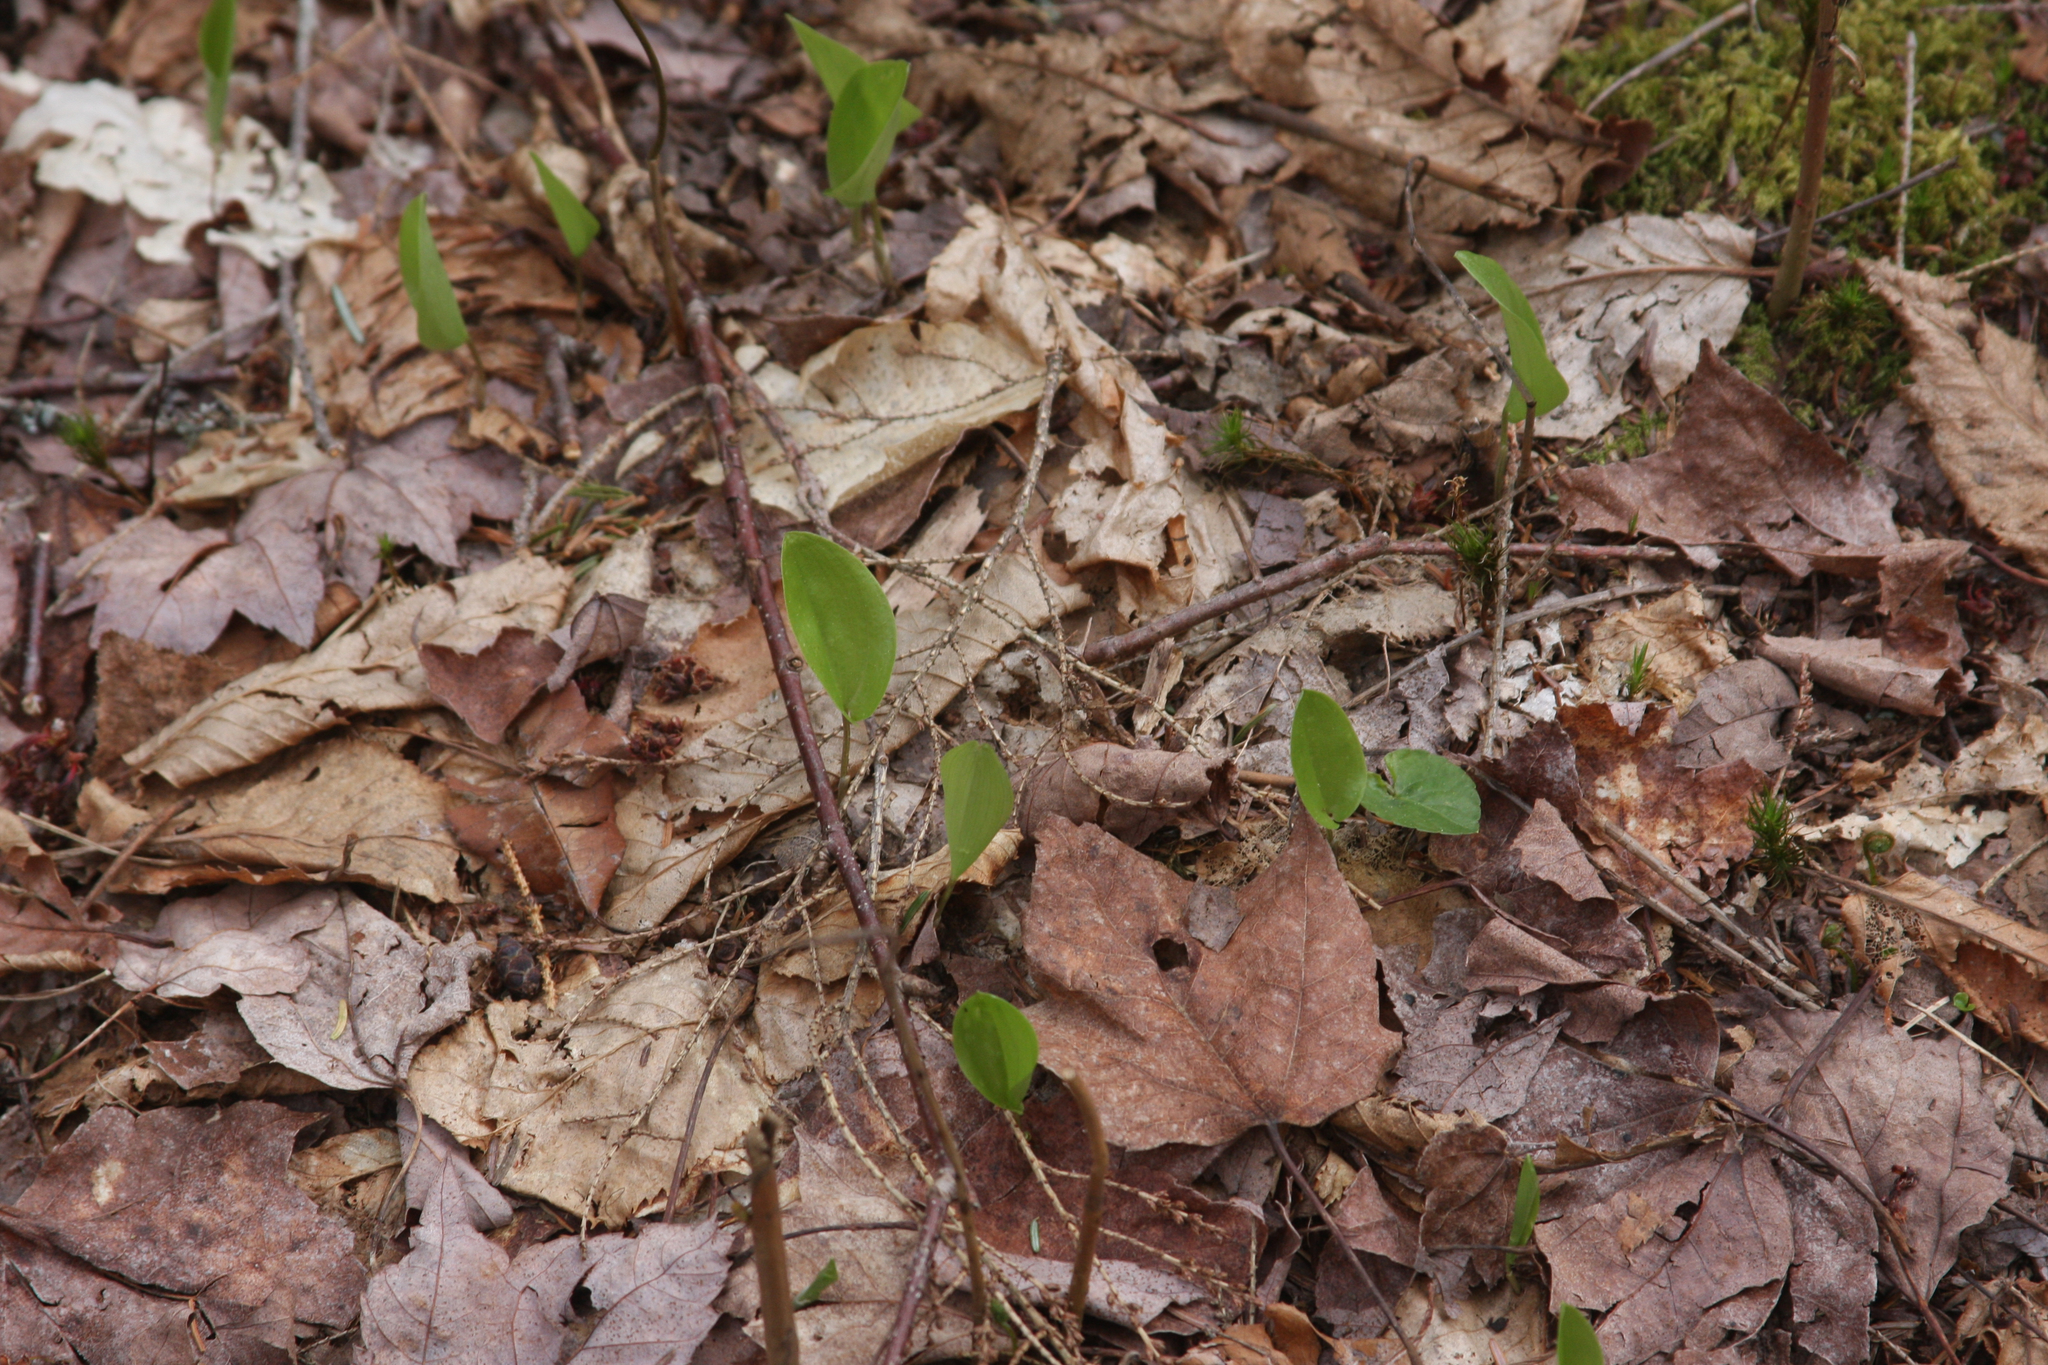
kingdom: Plantae
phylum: Tracheophyta
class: Liliopsida
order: Asparagales
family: Asparagaceae
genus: Maianthemum
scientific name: Maianthemum canadense
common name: False lily-of-the-valley
